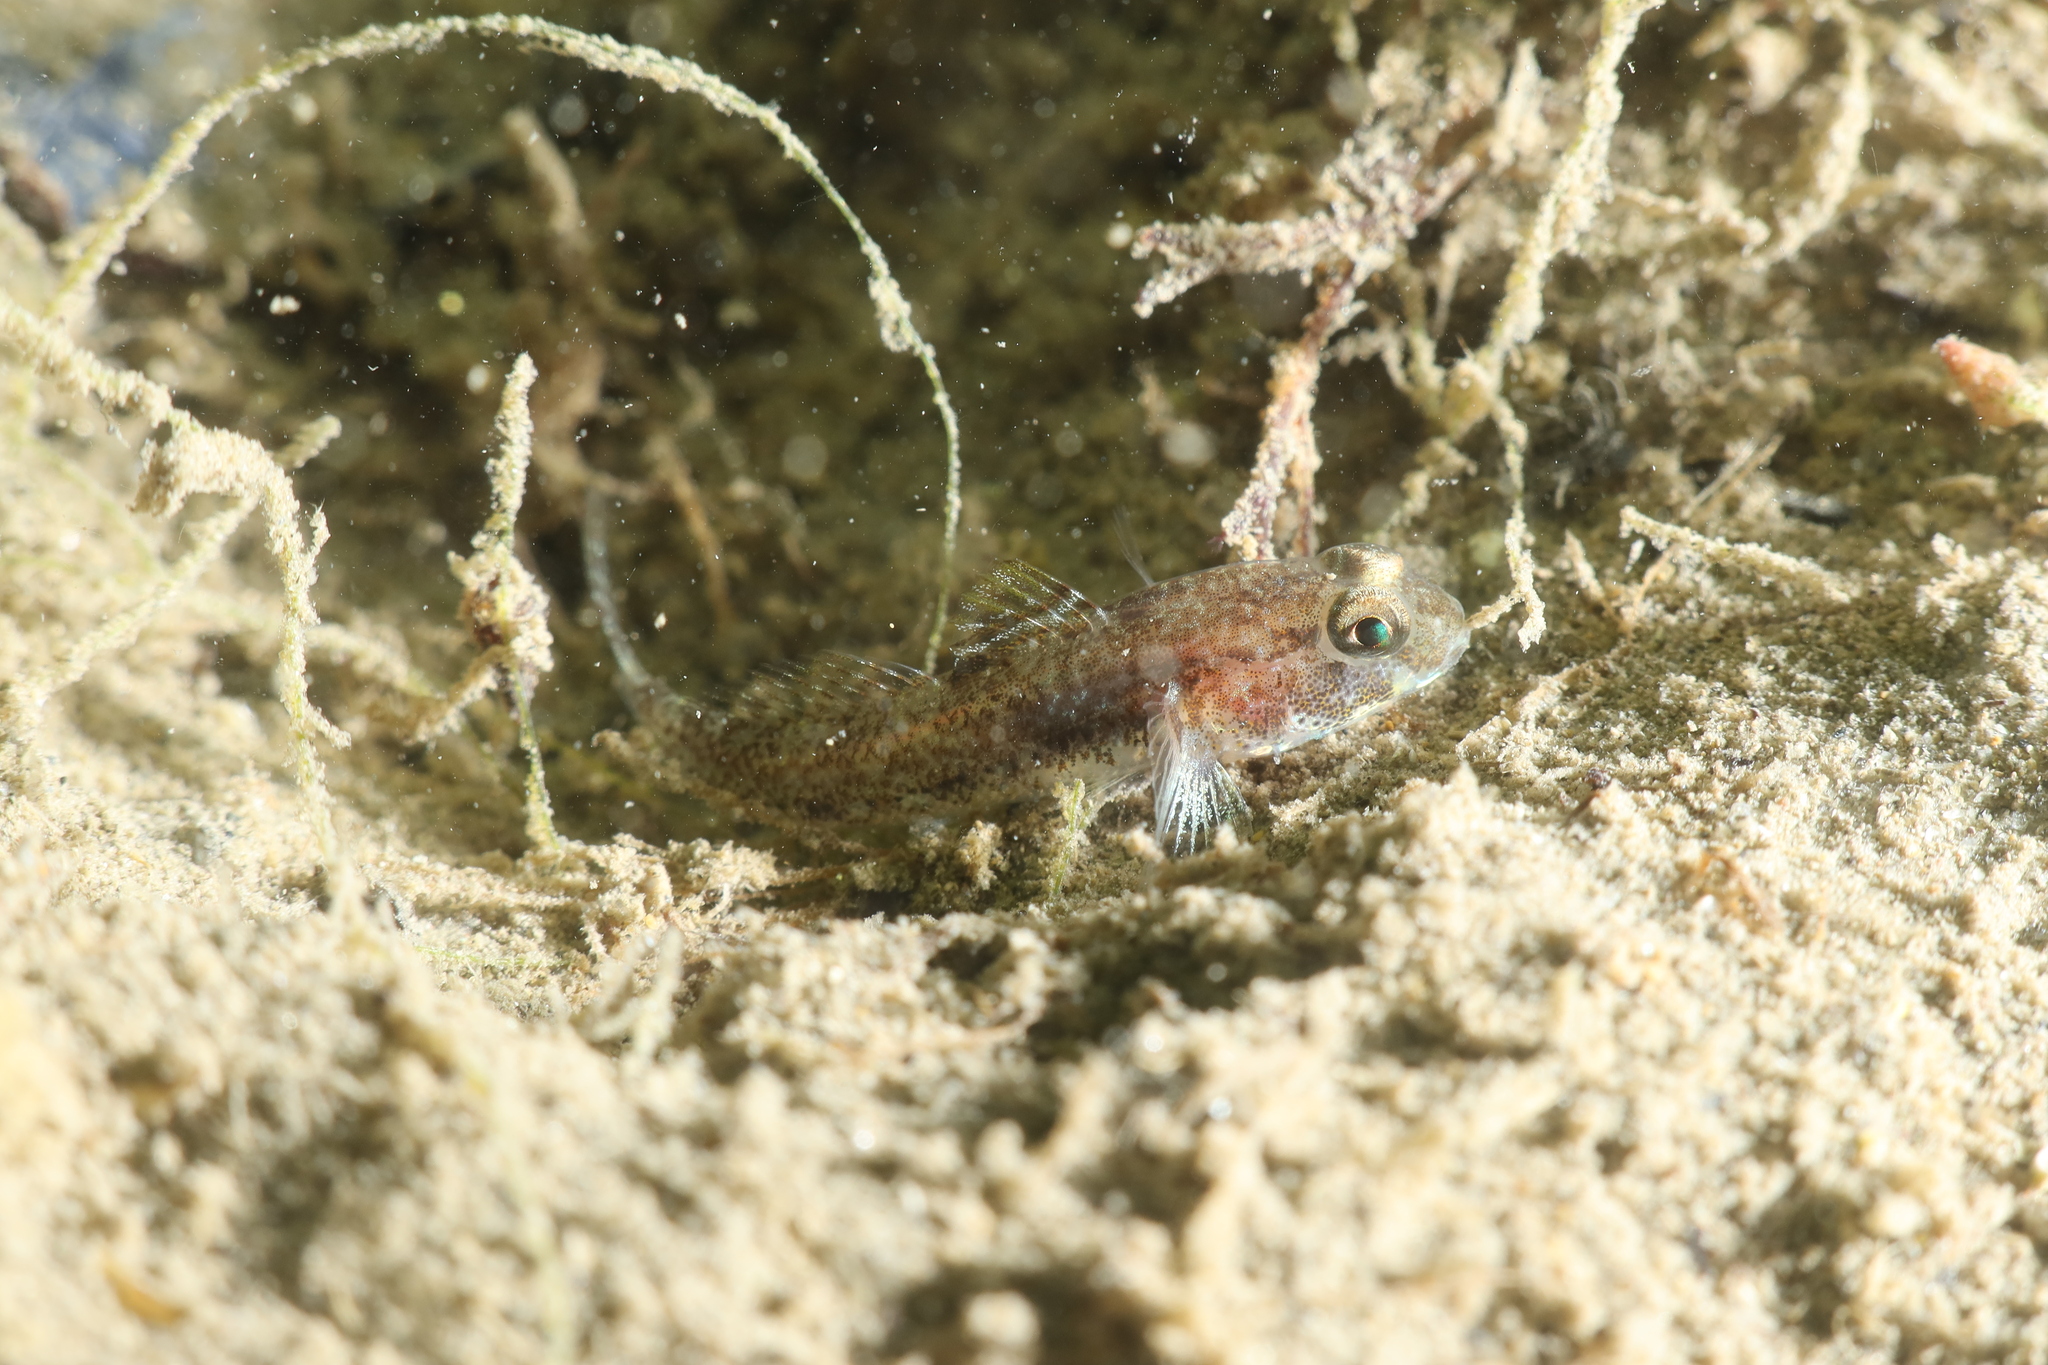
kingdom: Animalia
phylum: Chordata
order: Perciformes
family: Gobiidae
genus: Gobius
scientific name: Gobius niger
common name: Black goby
